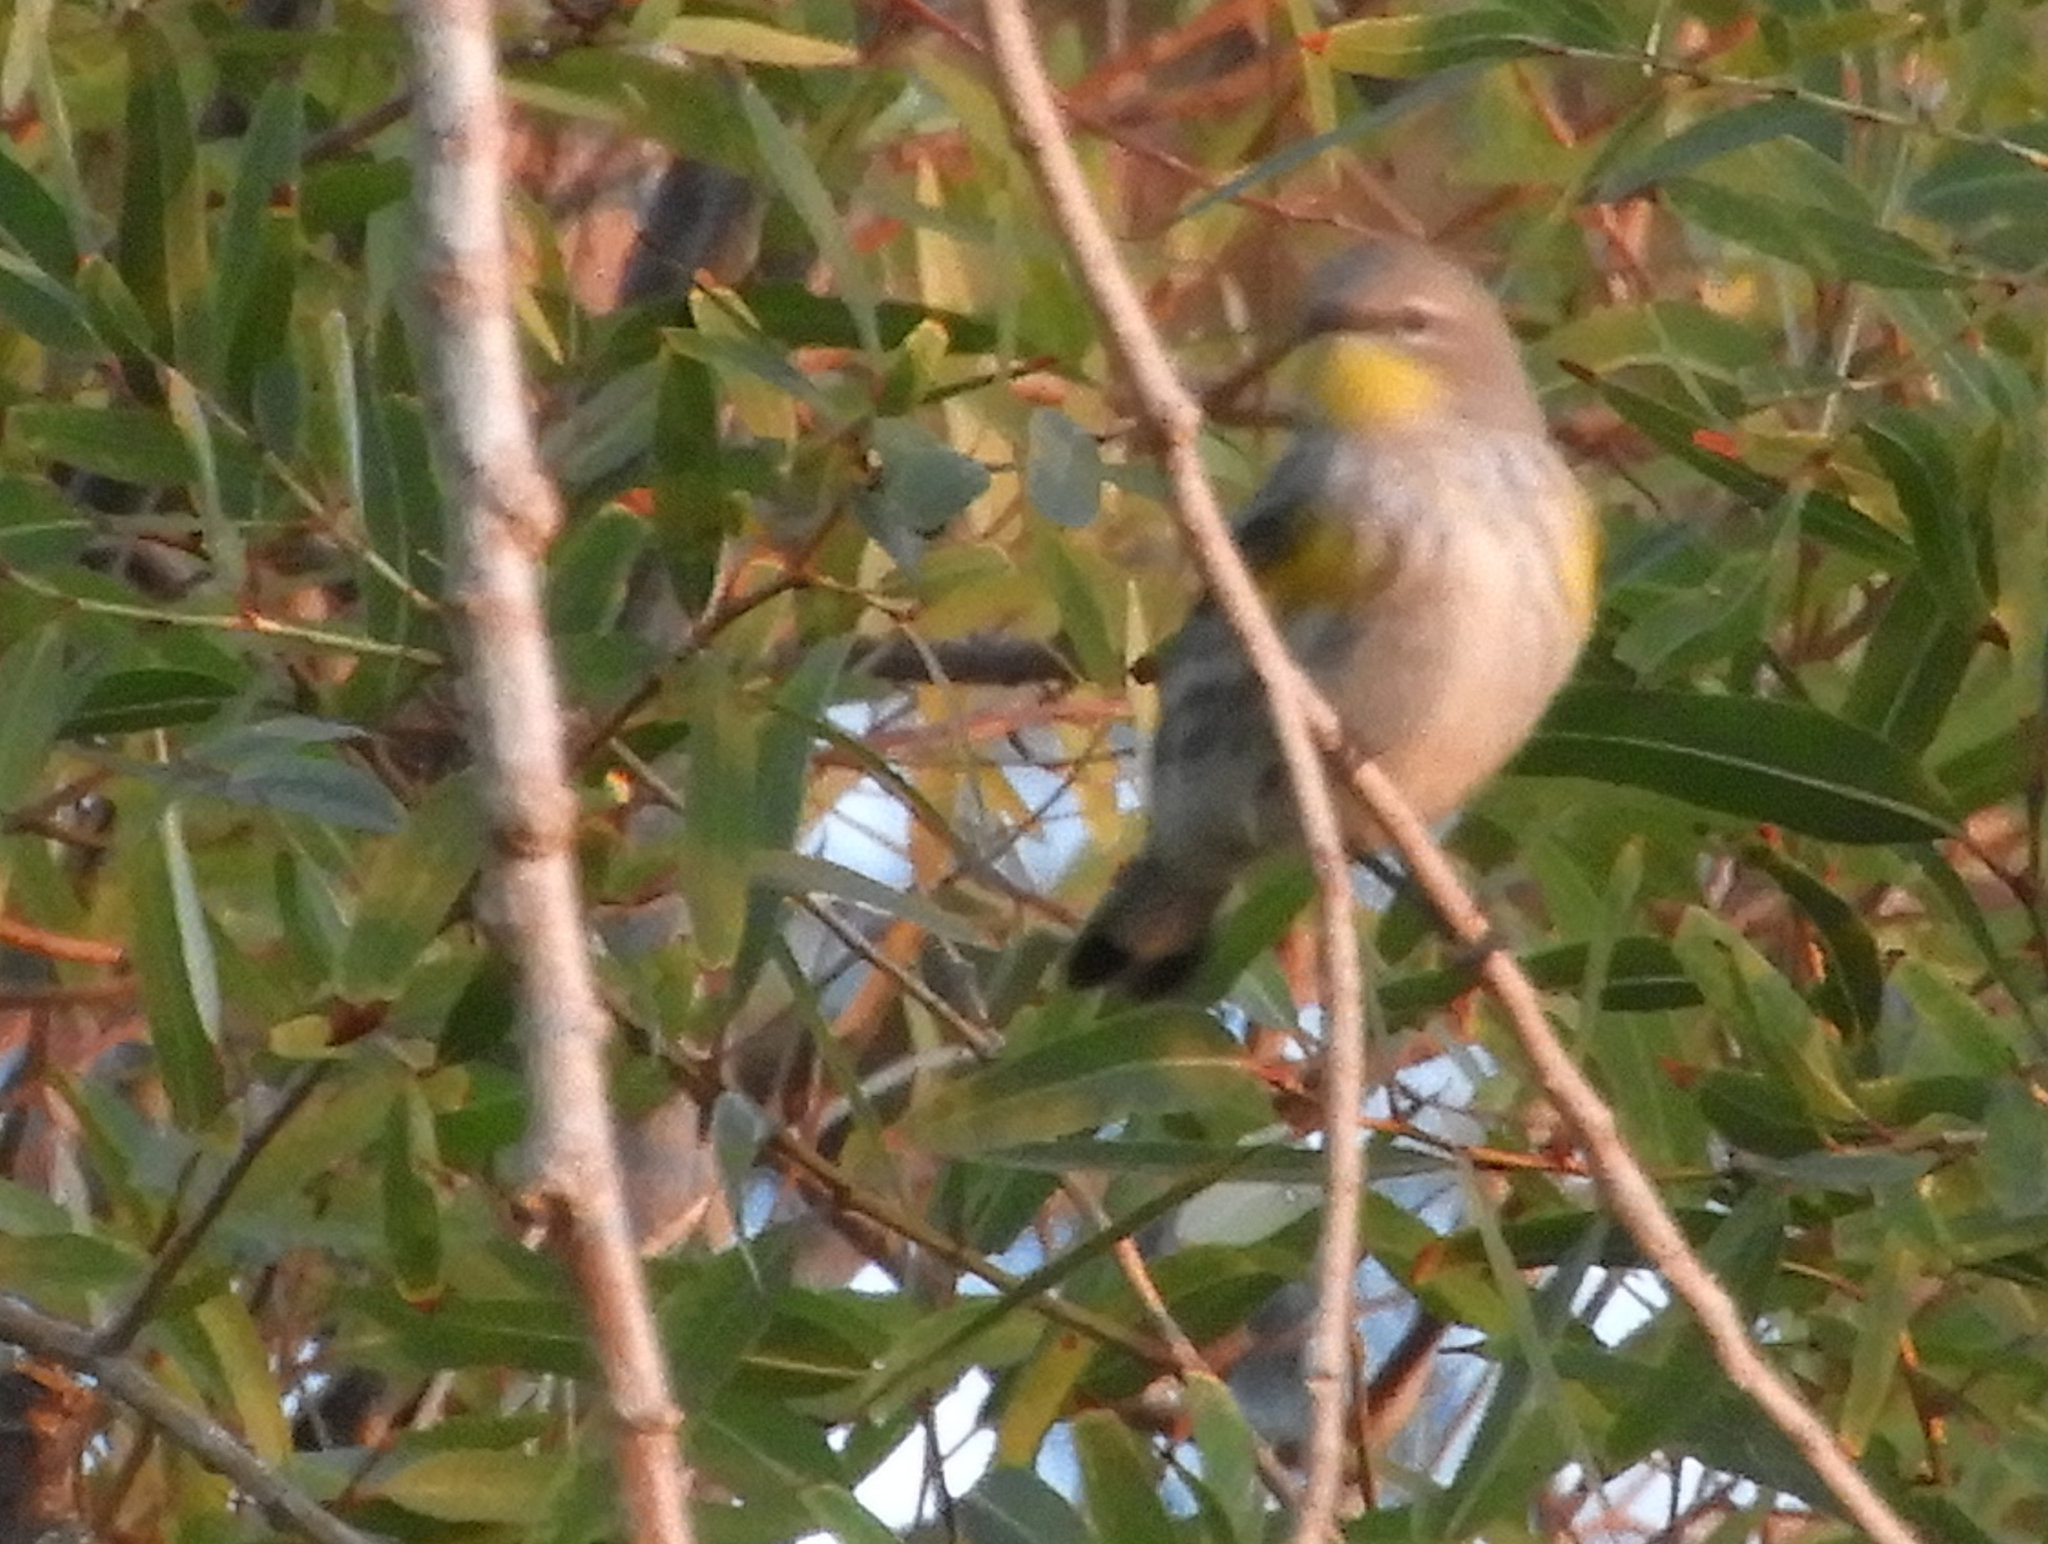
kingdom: Animalia
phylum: Chordata
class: Aves
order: Passeriformes
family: Parulidae
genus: Setophaga
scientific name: Setophaga auduboni
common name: Audubon's warbler
